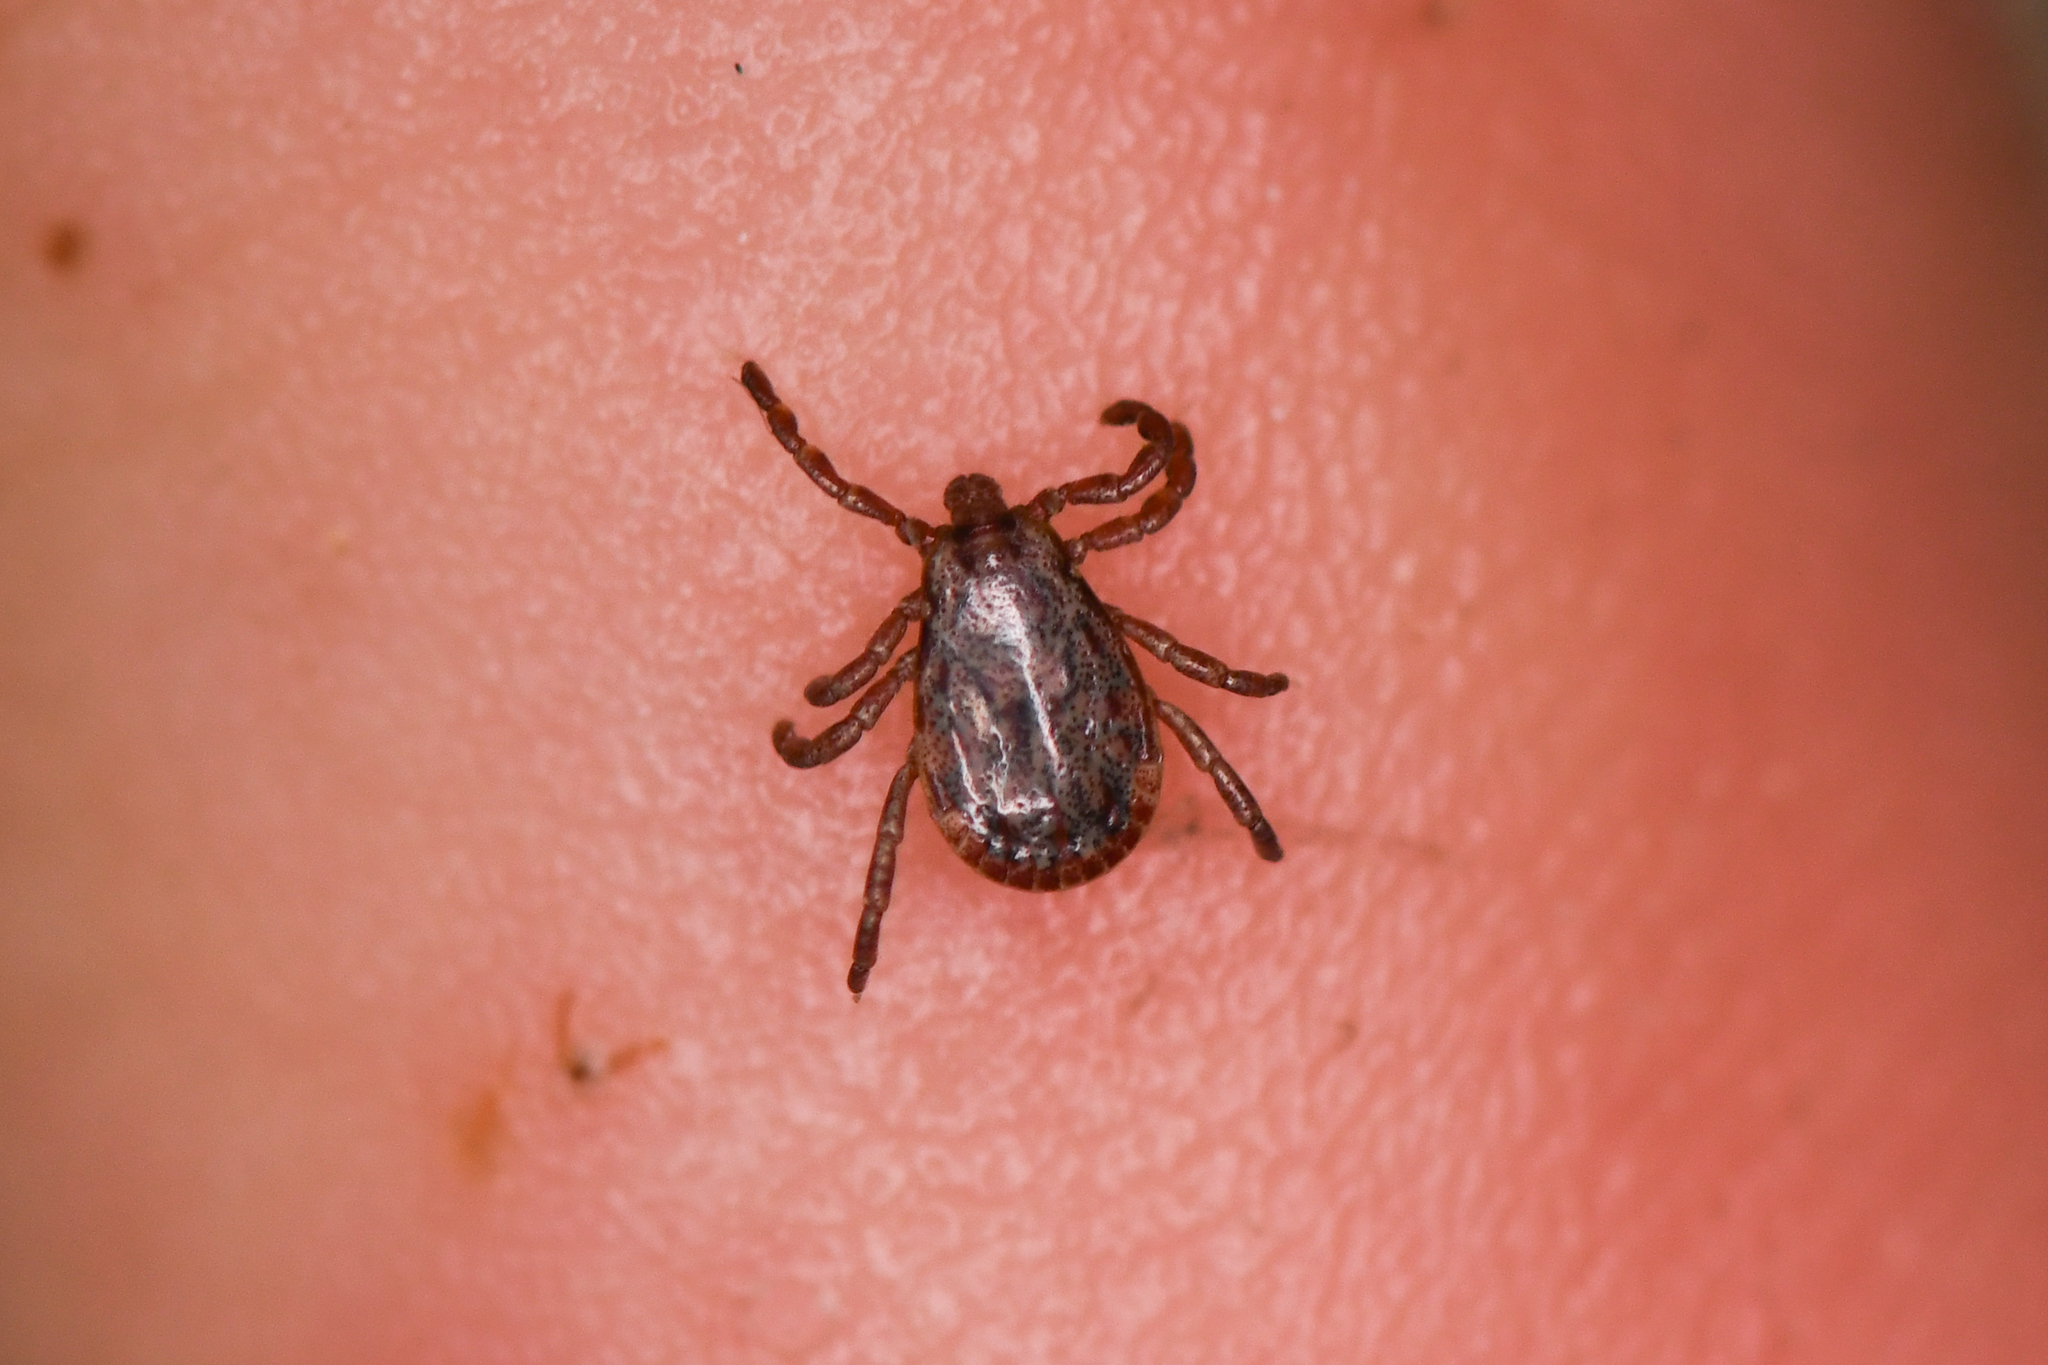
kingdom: Animalia
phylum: Arthropoda
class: Arachnida
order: Ixodida
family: Ixodidae
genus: Dermacentor
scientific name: Dermacentor occidentalis
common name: Net tick
